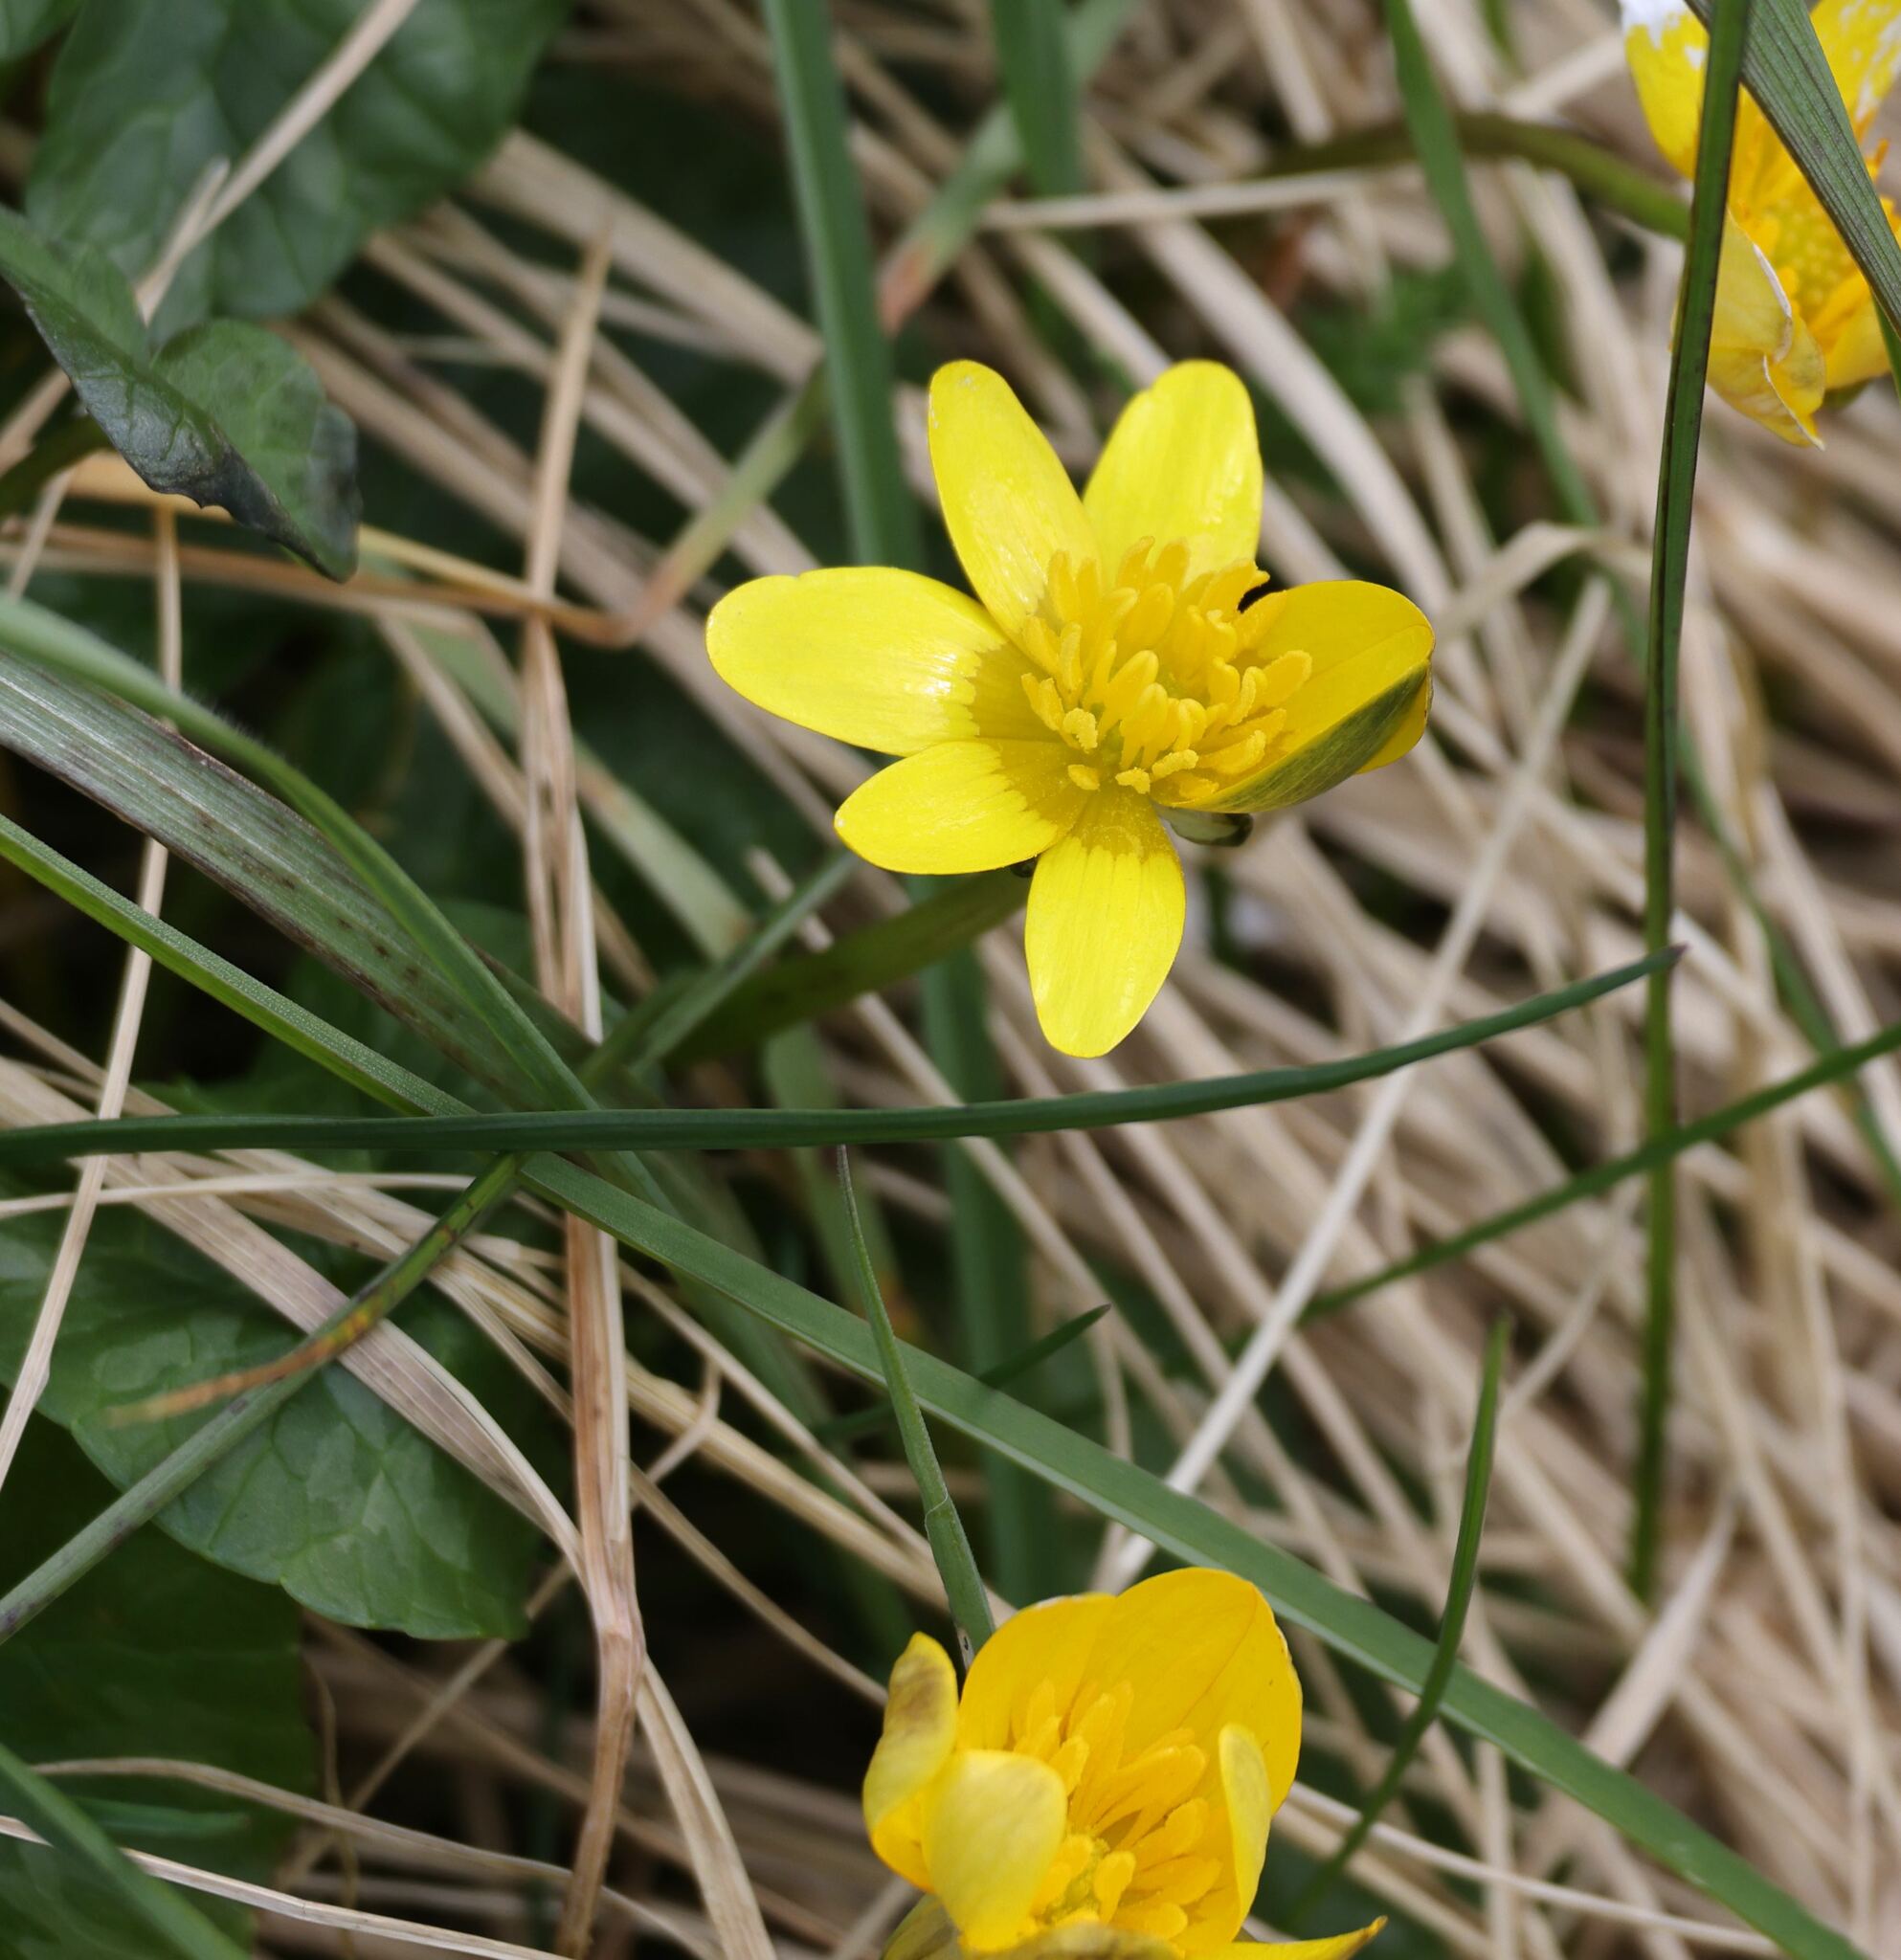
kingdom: Plantae
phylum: Tracheophyta
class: Magnoliopsida
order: Ranunculales
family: Ranunculaceae
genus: Ficaria
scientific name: Ficaria verna
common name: Lesser celandine
